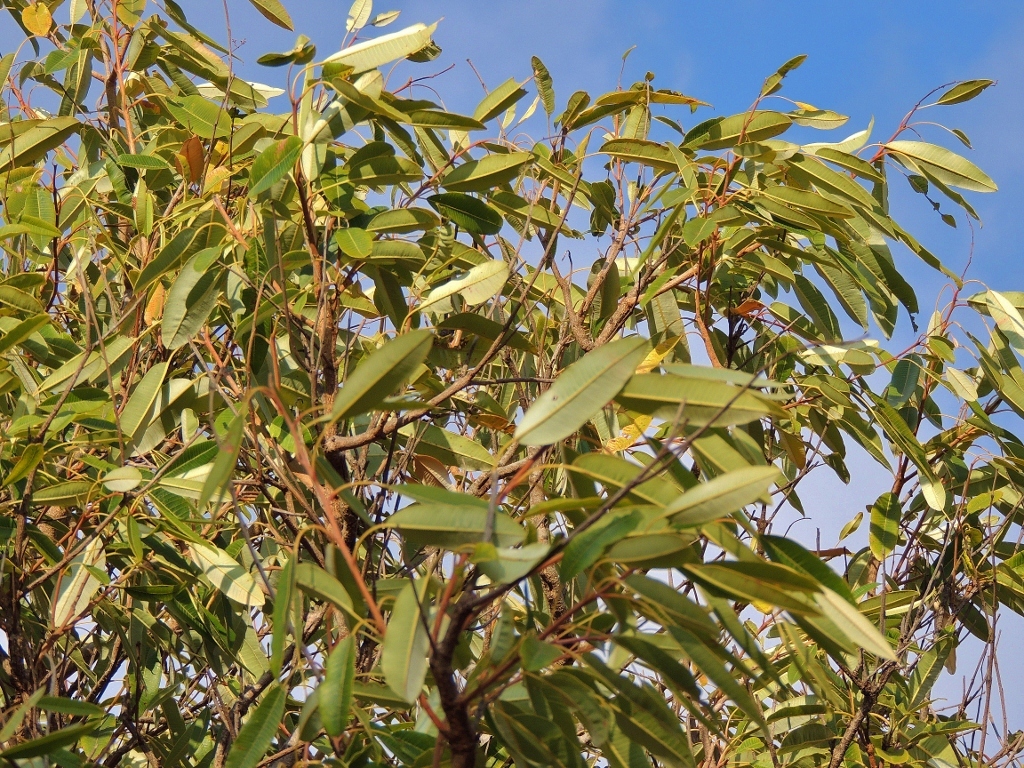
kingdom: Plantae
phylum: Tracheophyta
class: Magnoliopsida
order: Sapindales
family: Anacardiaceae
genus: Ozoroa
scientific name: Ozoroa longepetiolata
